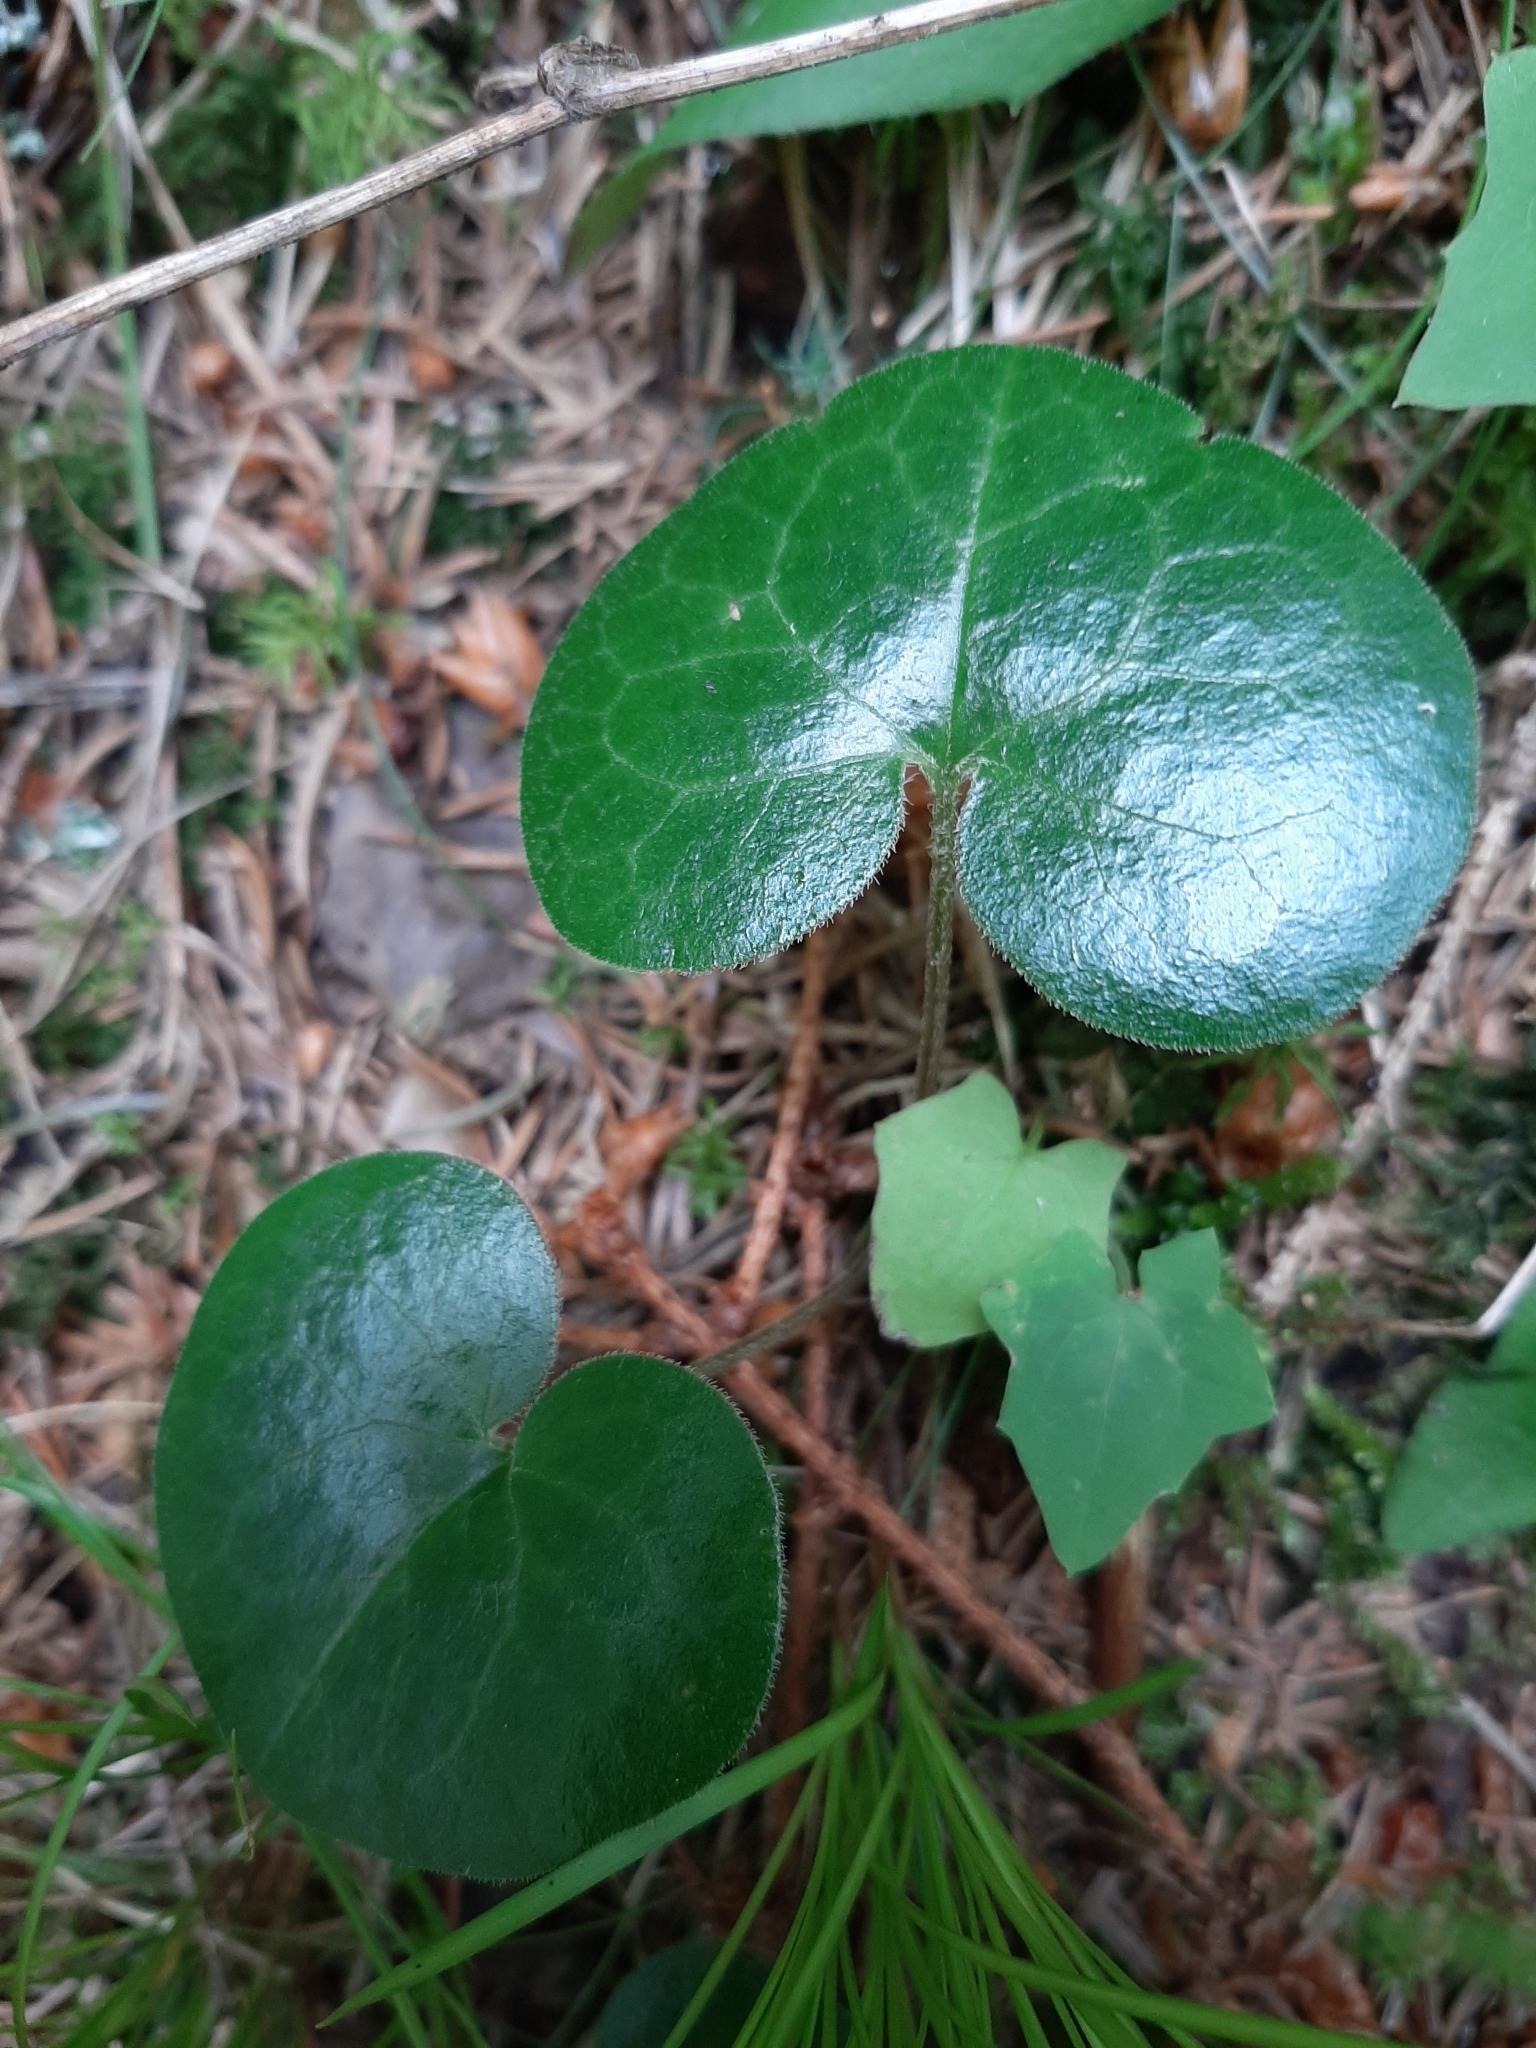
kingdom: Plantae
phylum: Tracheophyta
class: Magnoliopsida
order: Piperales
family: Aristolochiaceae
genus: Asarum
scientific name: Asarum europaeum
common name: Asarabacca
